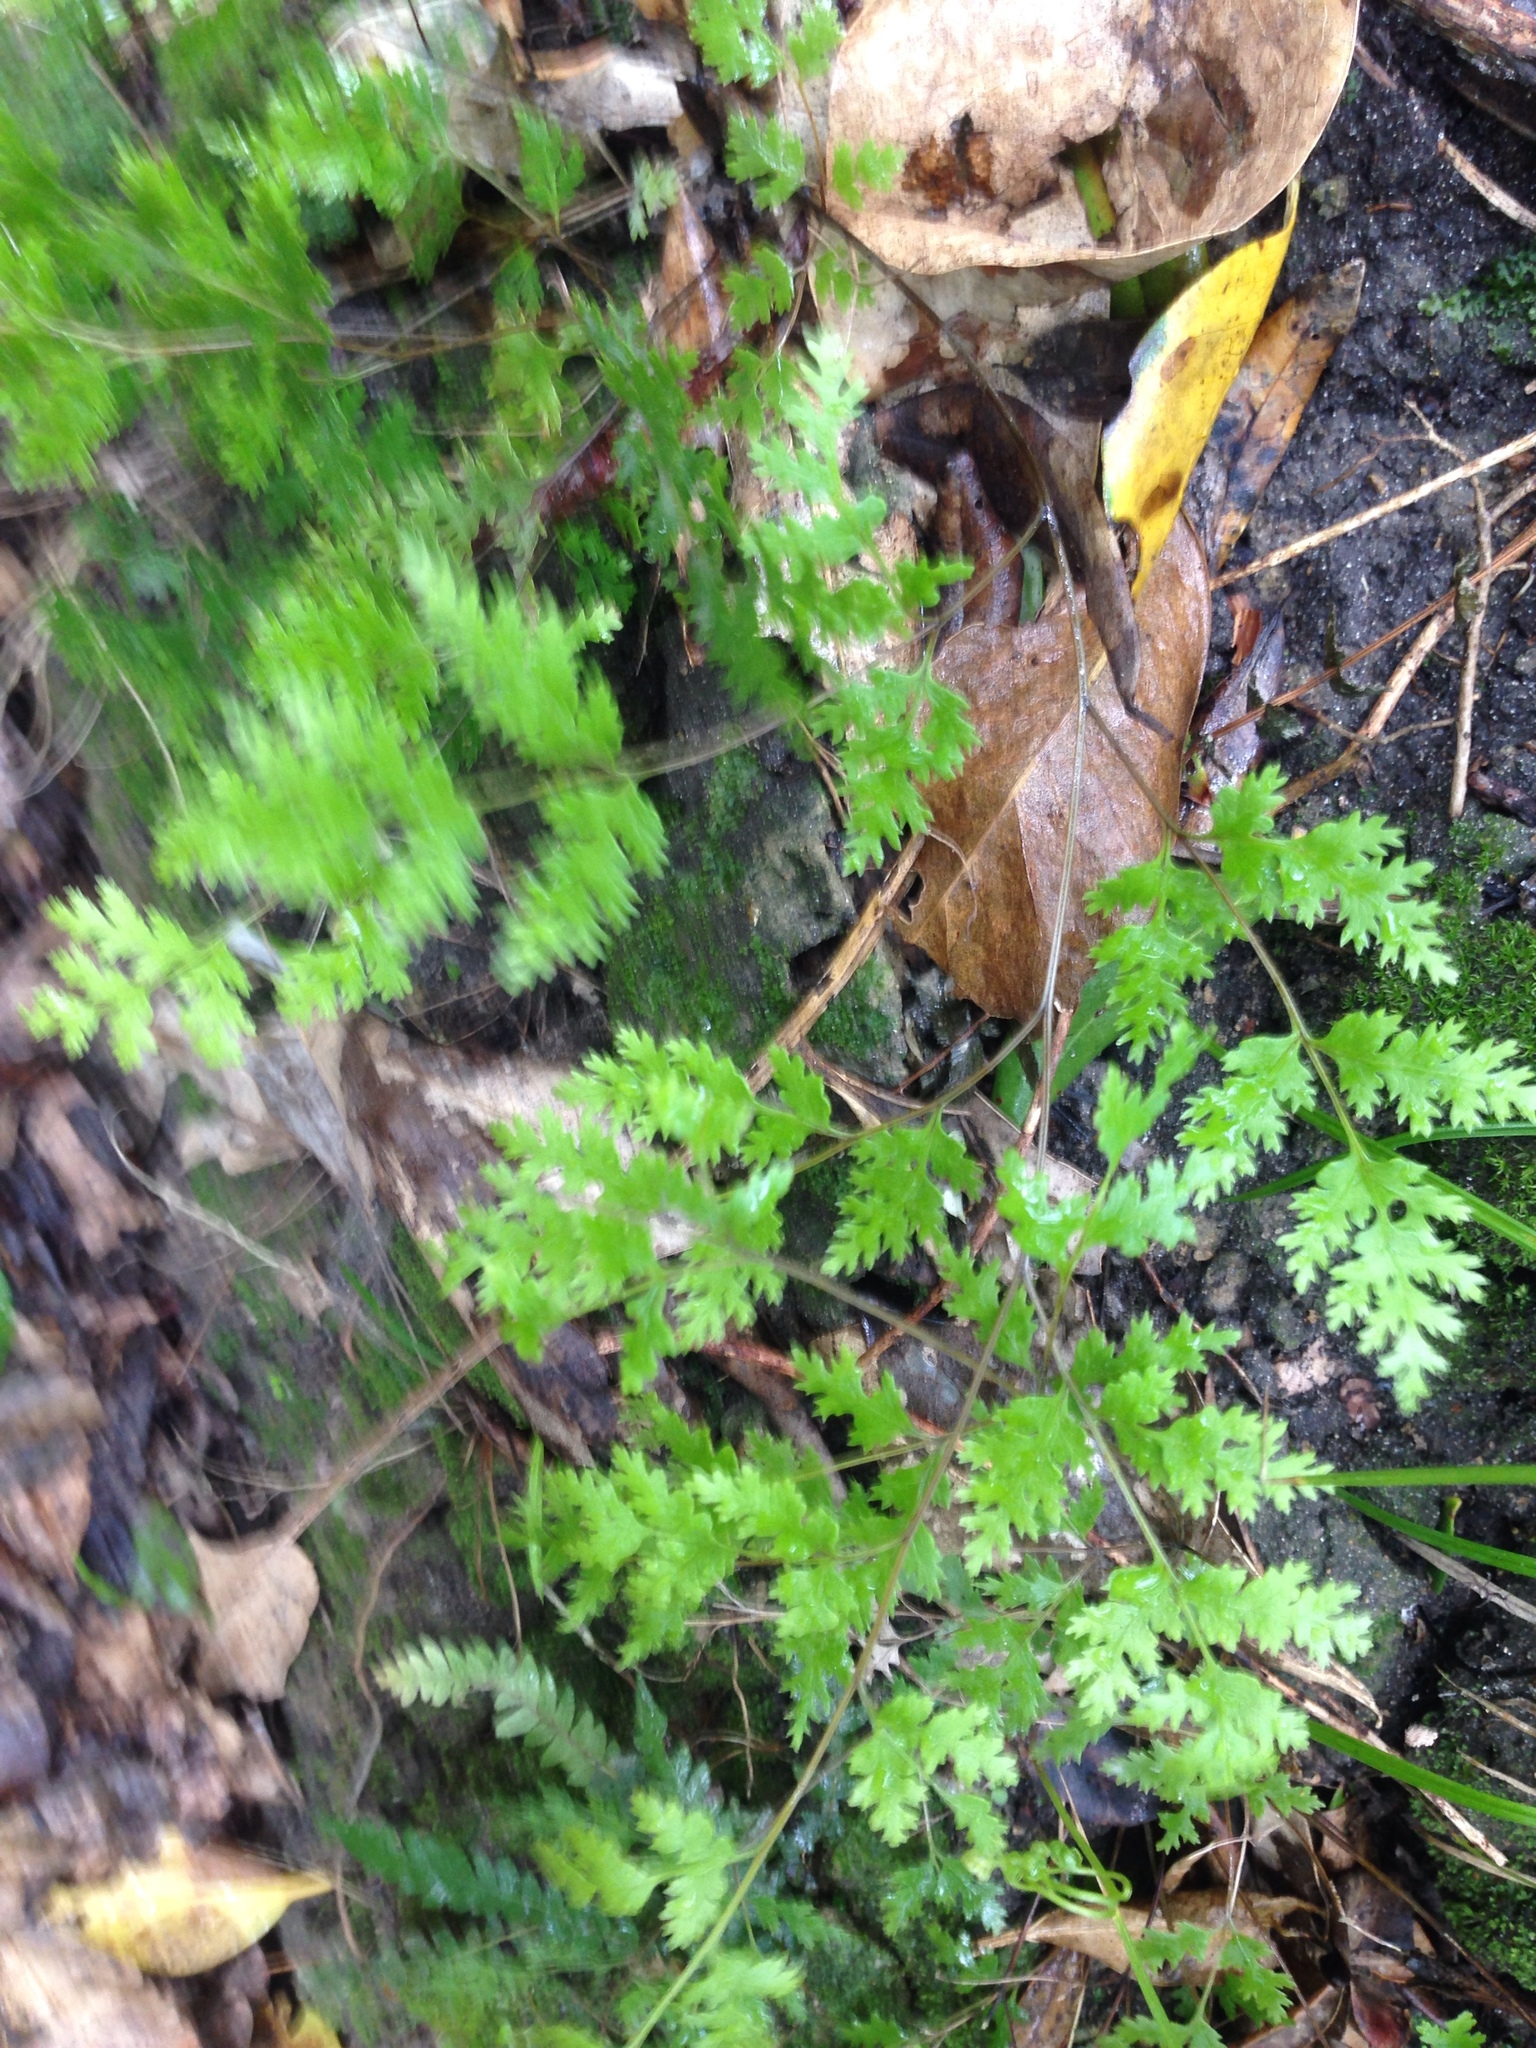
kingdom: Plantae
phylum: Tracheophyta
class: Polypodiopsida
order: Polypodiales
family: Pteridaceae
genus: Pteris
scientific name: Pteris macilenta
